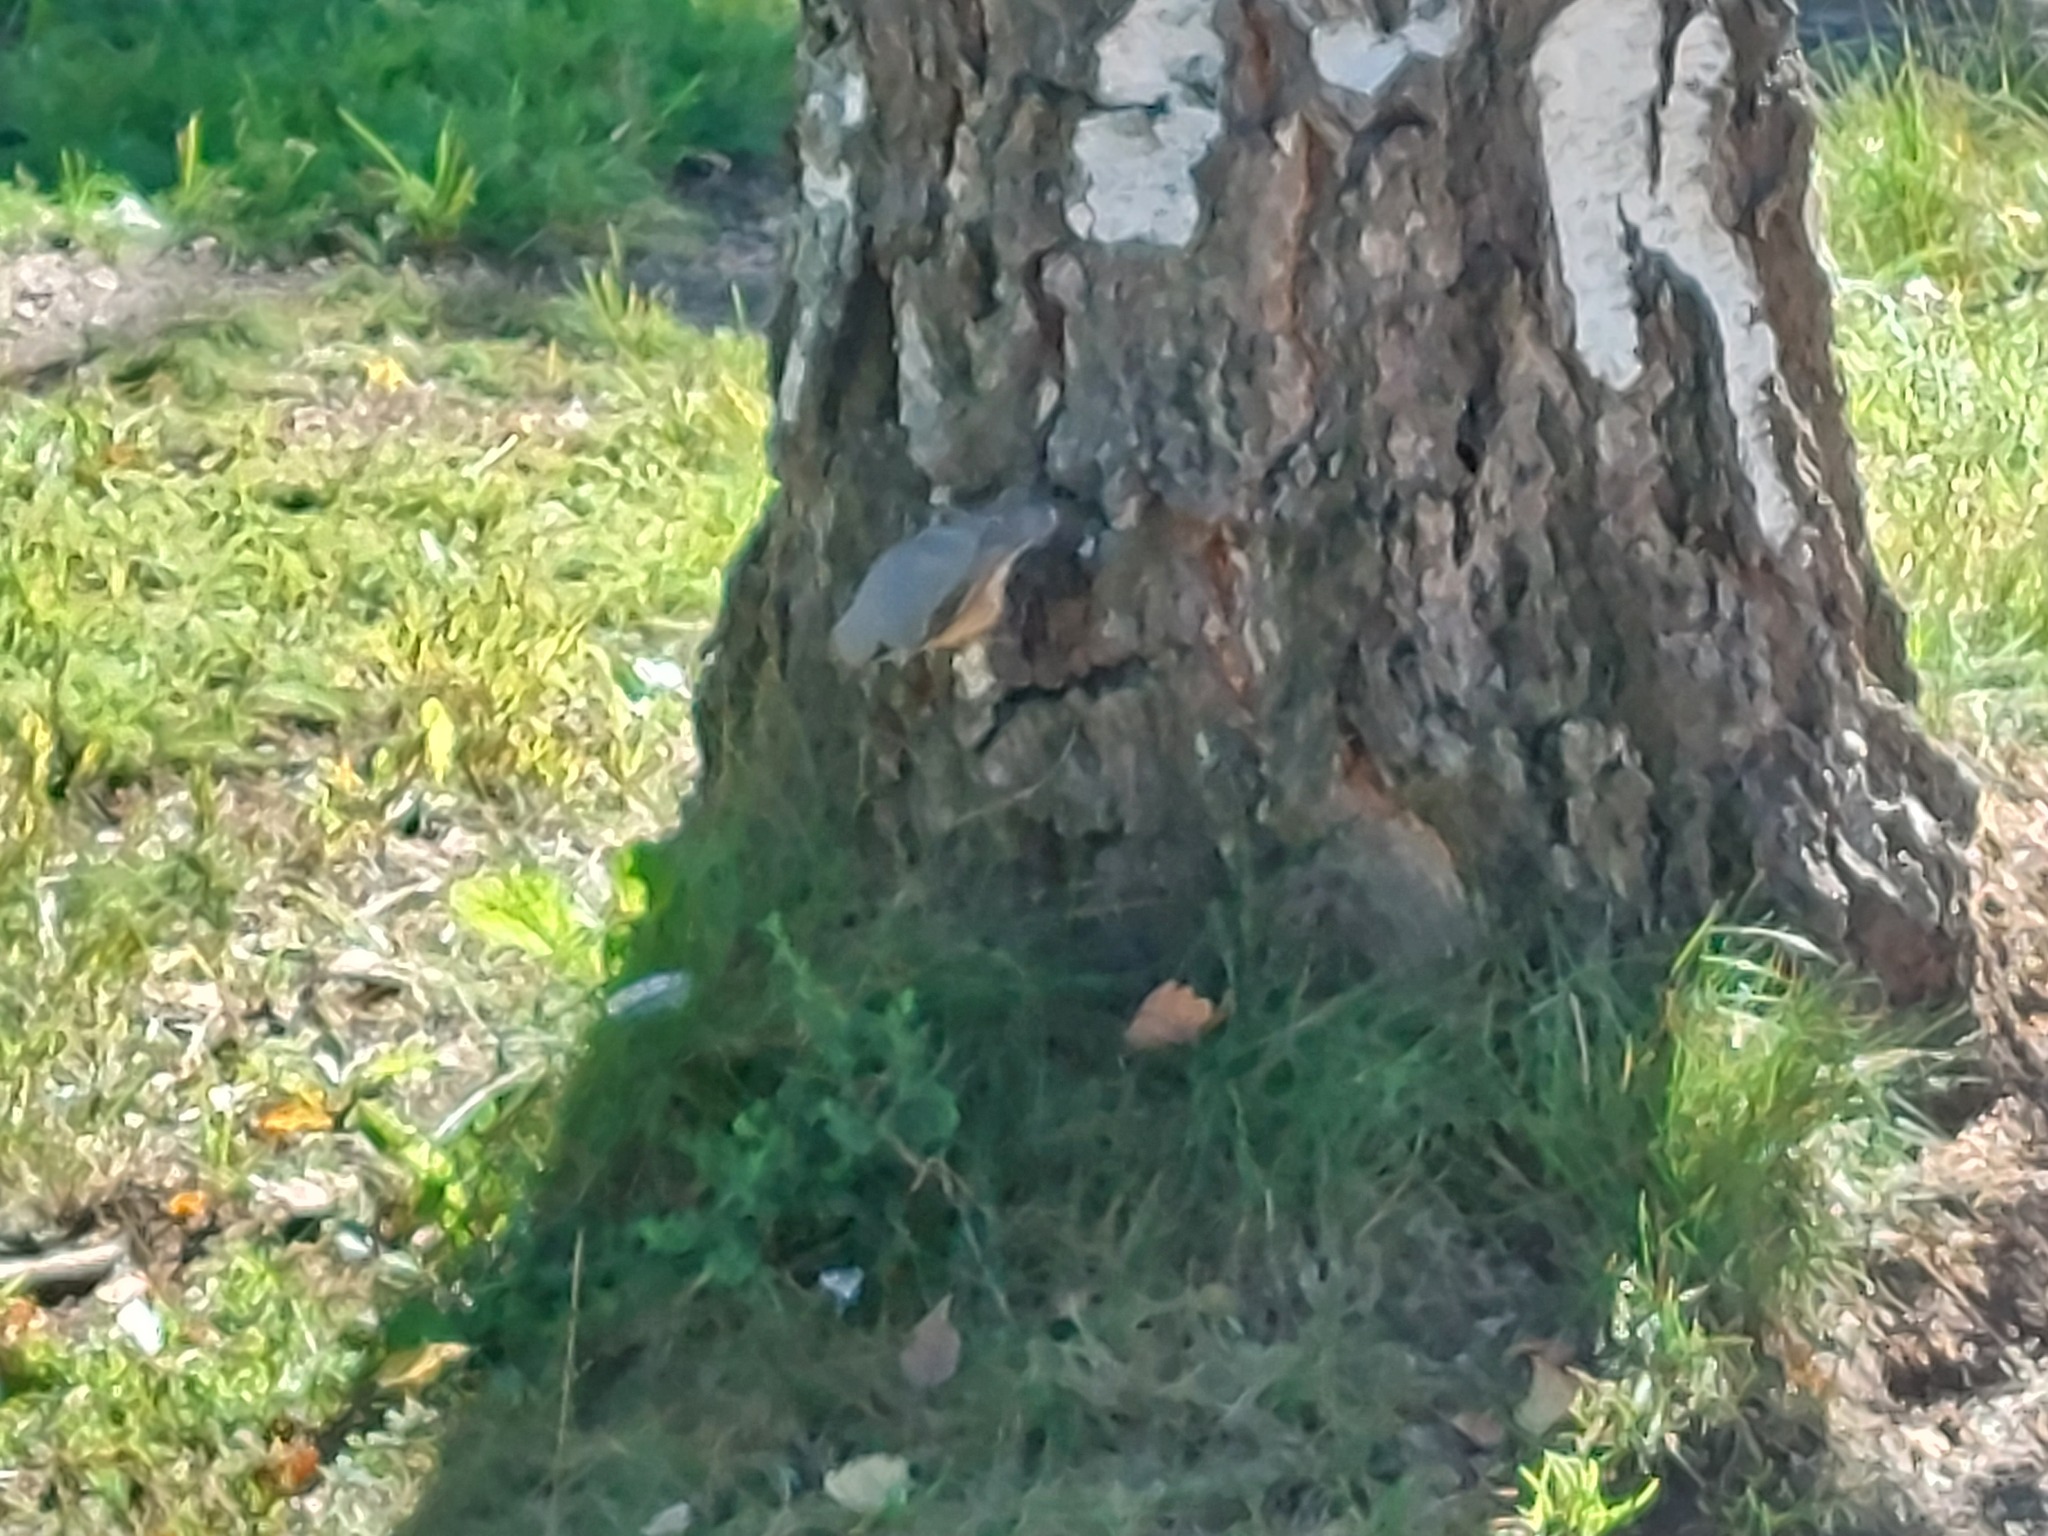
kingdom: Animalia
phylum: Chordata
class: Aves
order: Passeriformes
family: Sittidae
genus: Sitta
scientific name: Sitta europaea
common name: Eurasian nuthatch
